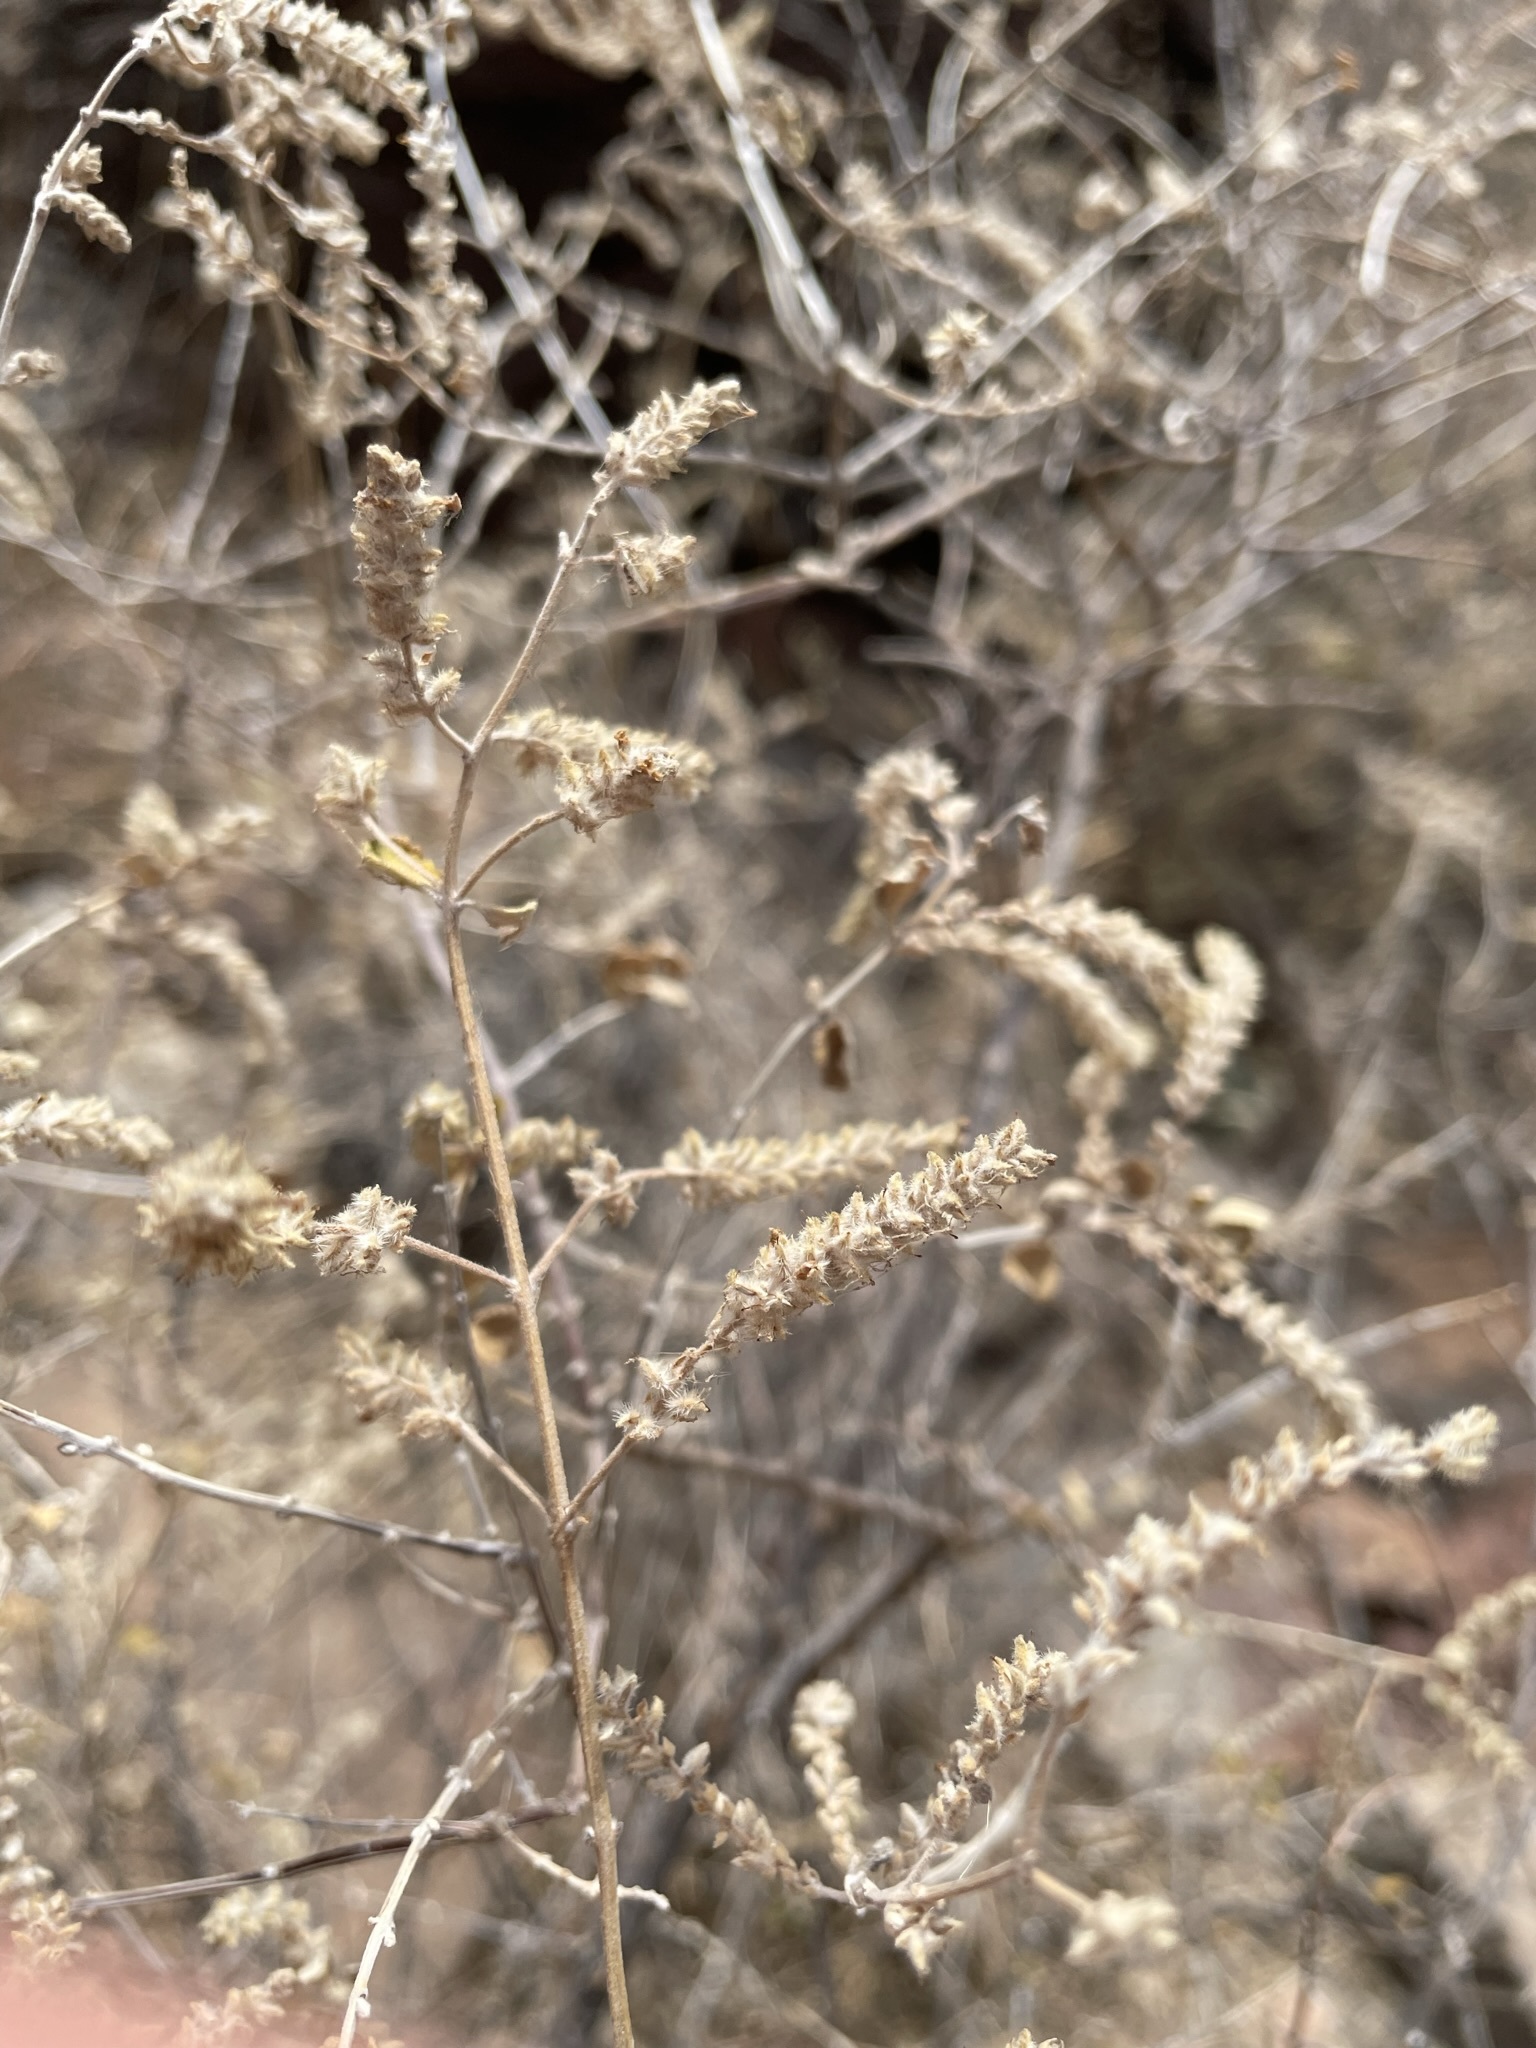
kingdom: Plantae
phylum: Tracheophyta
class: Magnoliopsida
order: Lamiales
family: Verbenaceae
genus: Aloysia
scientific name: Aloysia gratissima
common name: Common bee-brush
